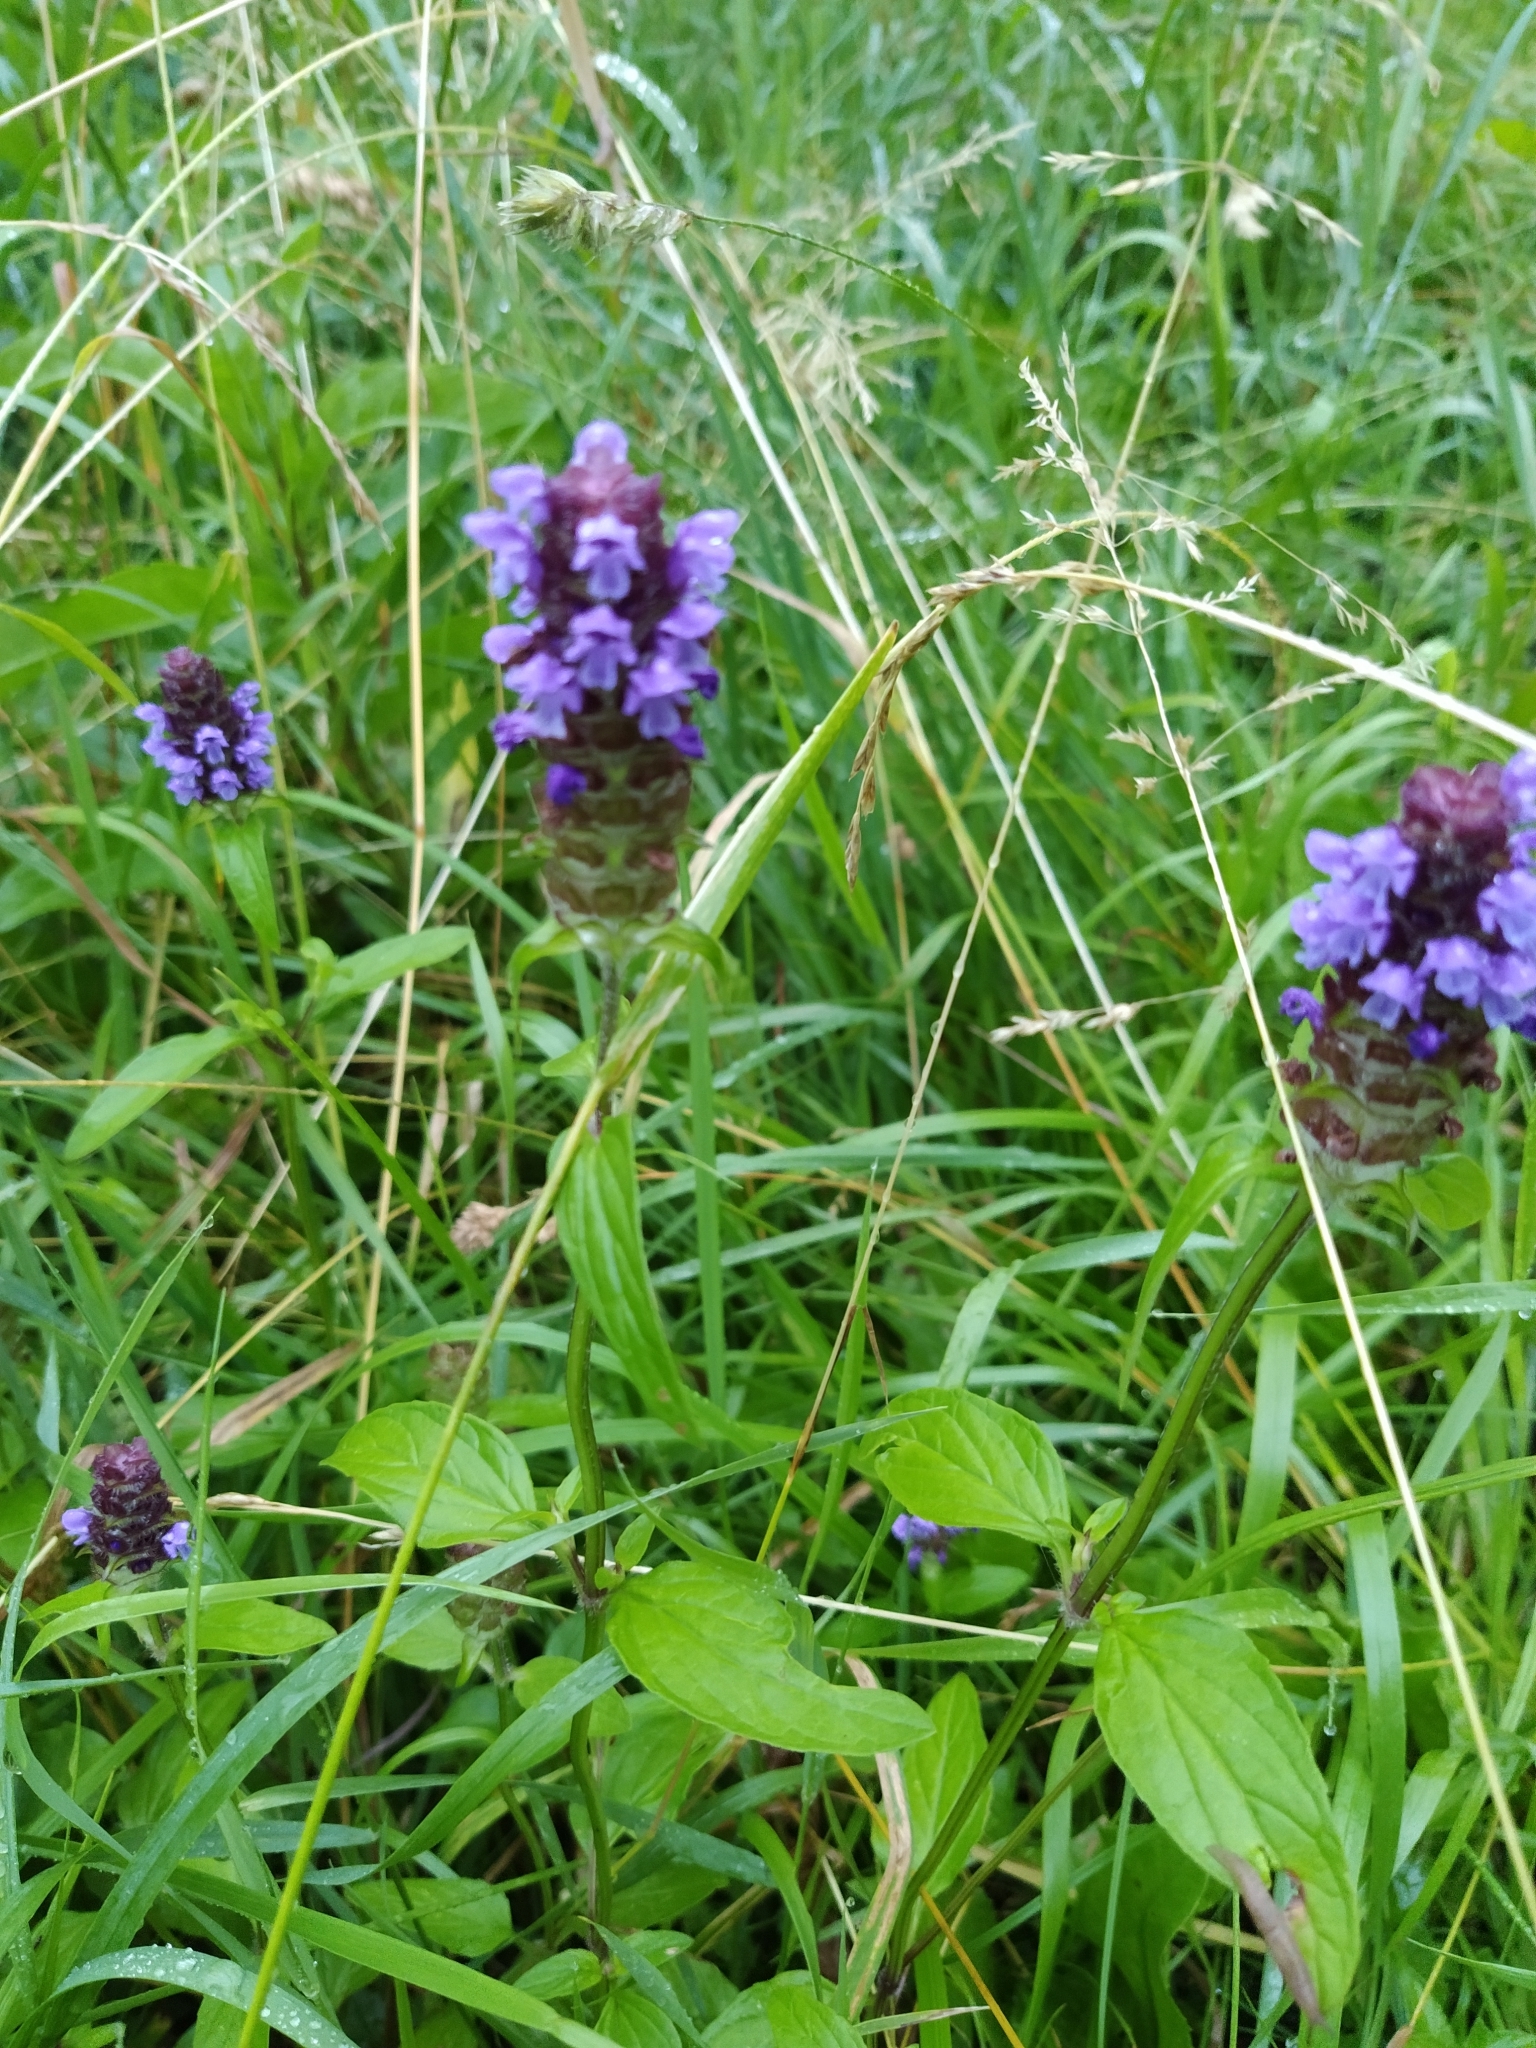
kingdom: Plantae
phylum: Tracheophyta
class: Magnoliopsida
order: Lamiales
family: Lamiaceae
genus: Prunella
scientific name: Prunella vulgaris
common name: Heal-all
